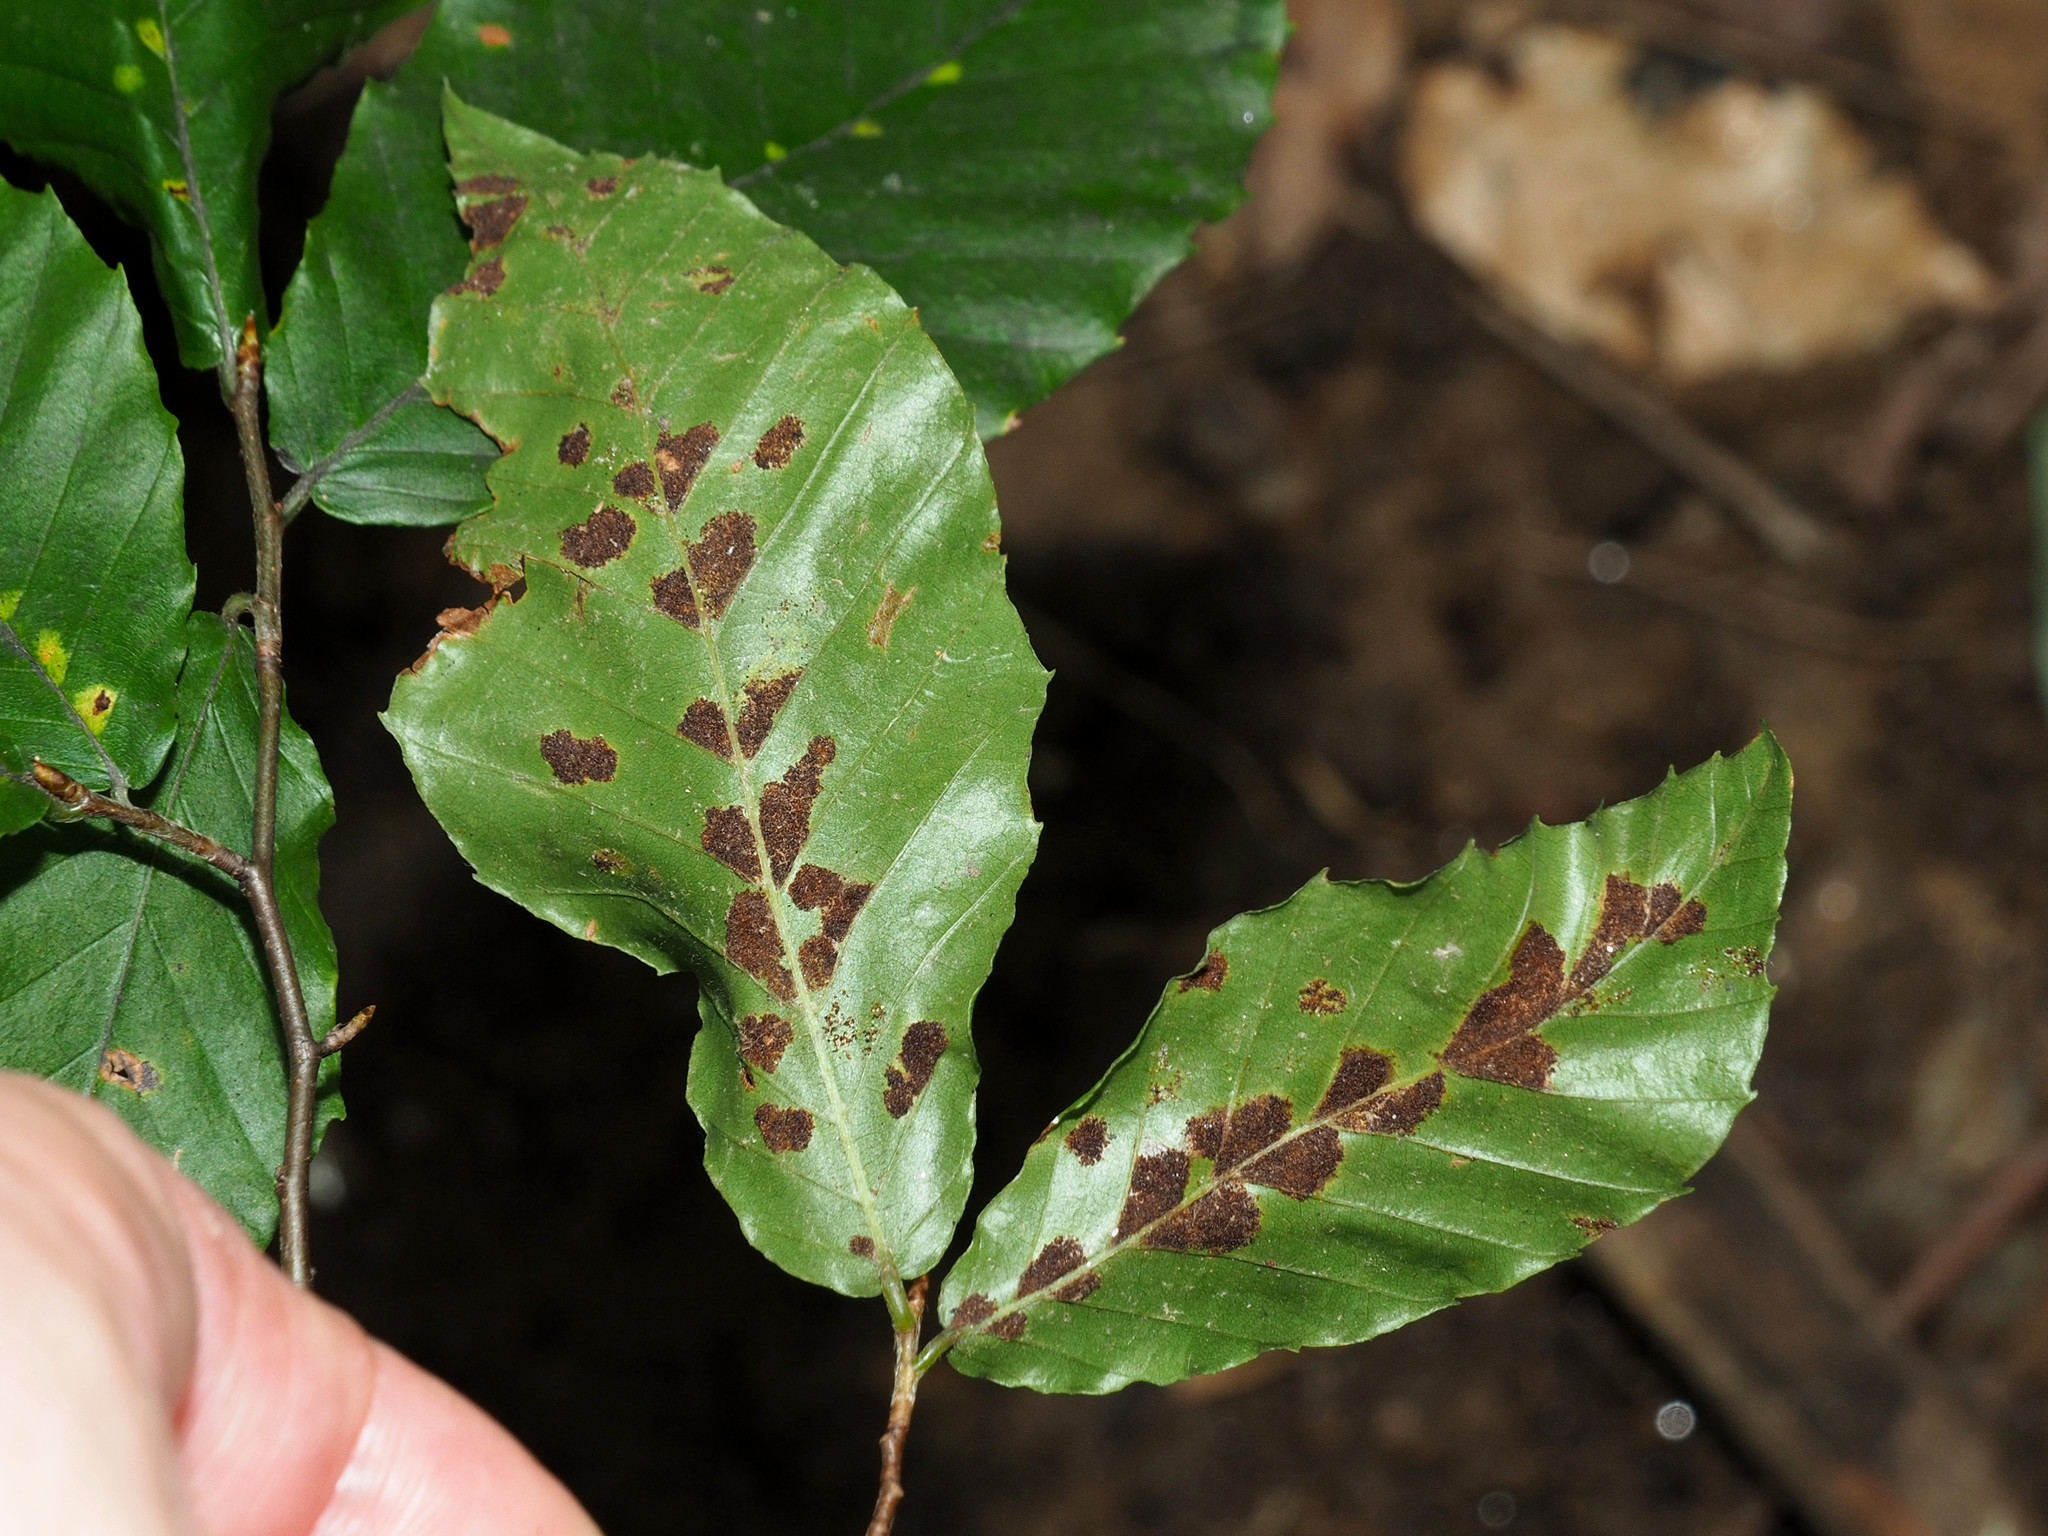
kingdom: Animalia
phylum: Arthropoda
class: Arachnida
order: Trombidiformes
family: Eriophyidae
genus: Acalitus
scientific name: Acalitus
